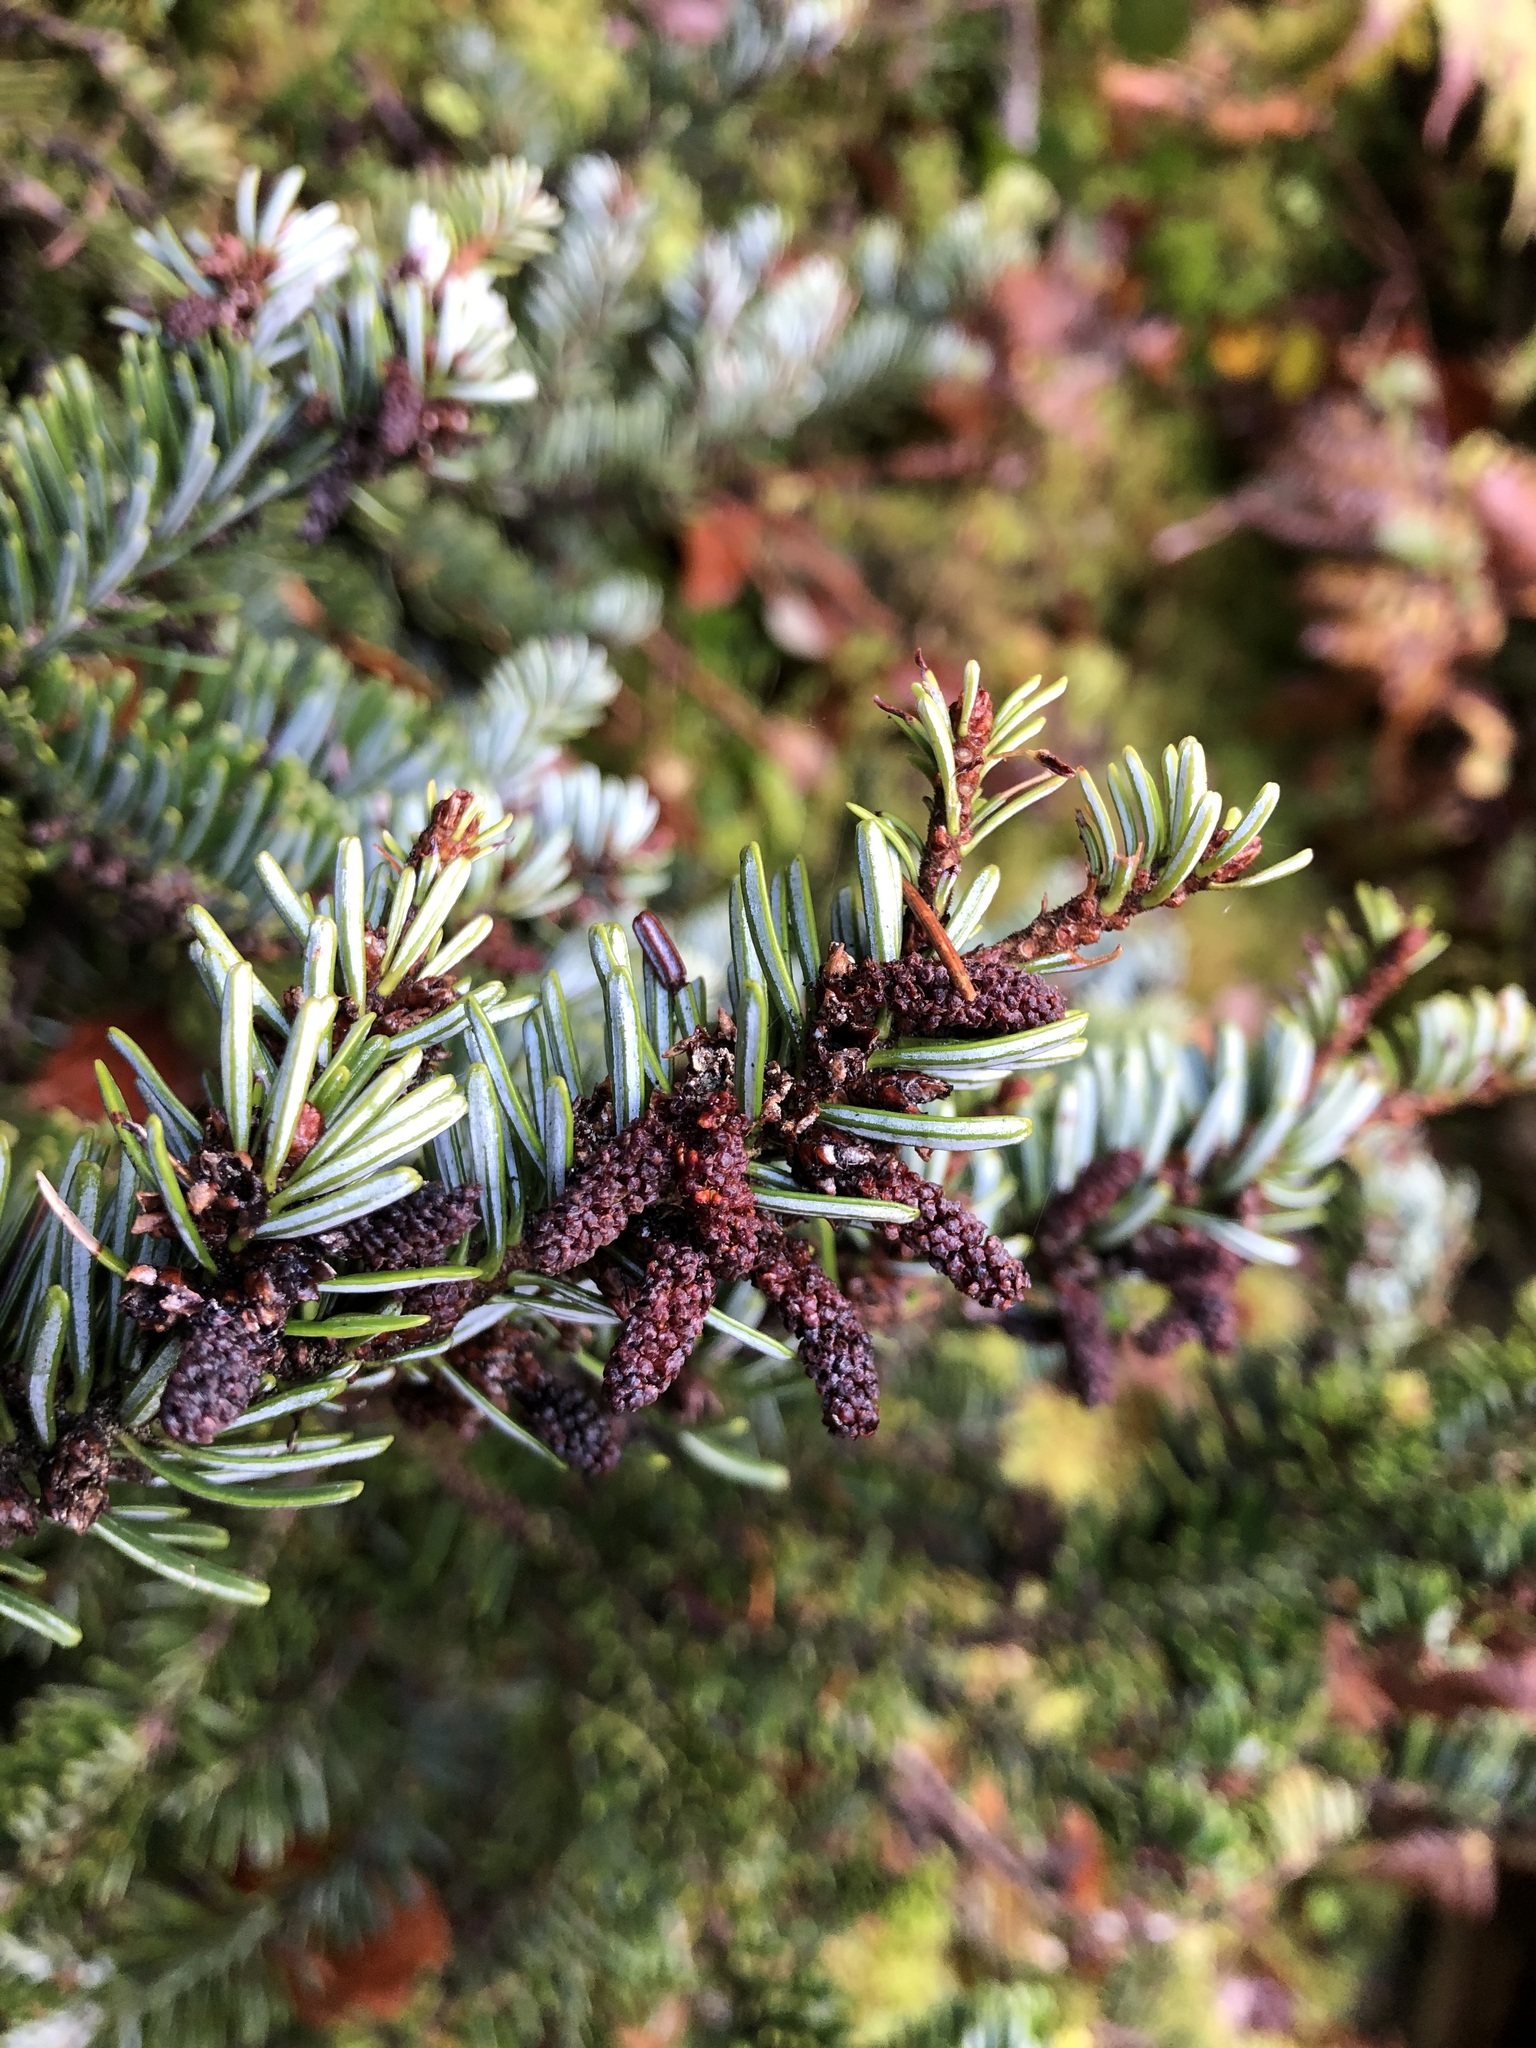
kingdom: Plantae
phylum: Tracheophyta
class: Pinopsida
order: Pinales
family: Pinaceae
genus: Abies
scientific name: Abies alba
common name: Silver fir
